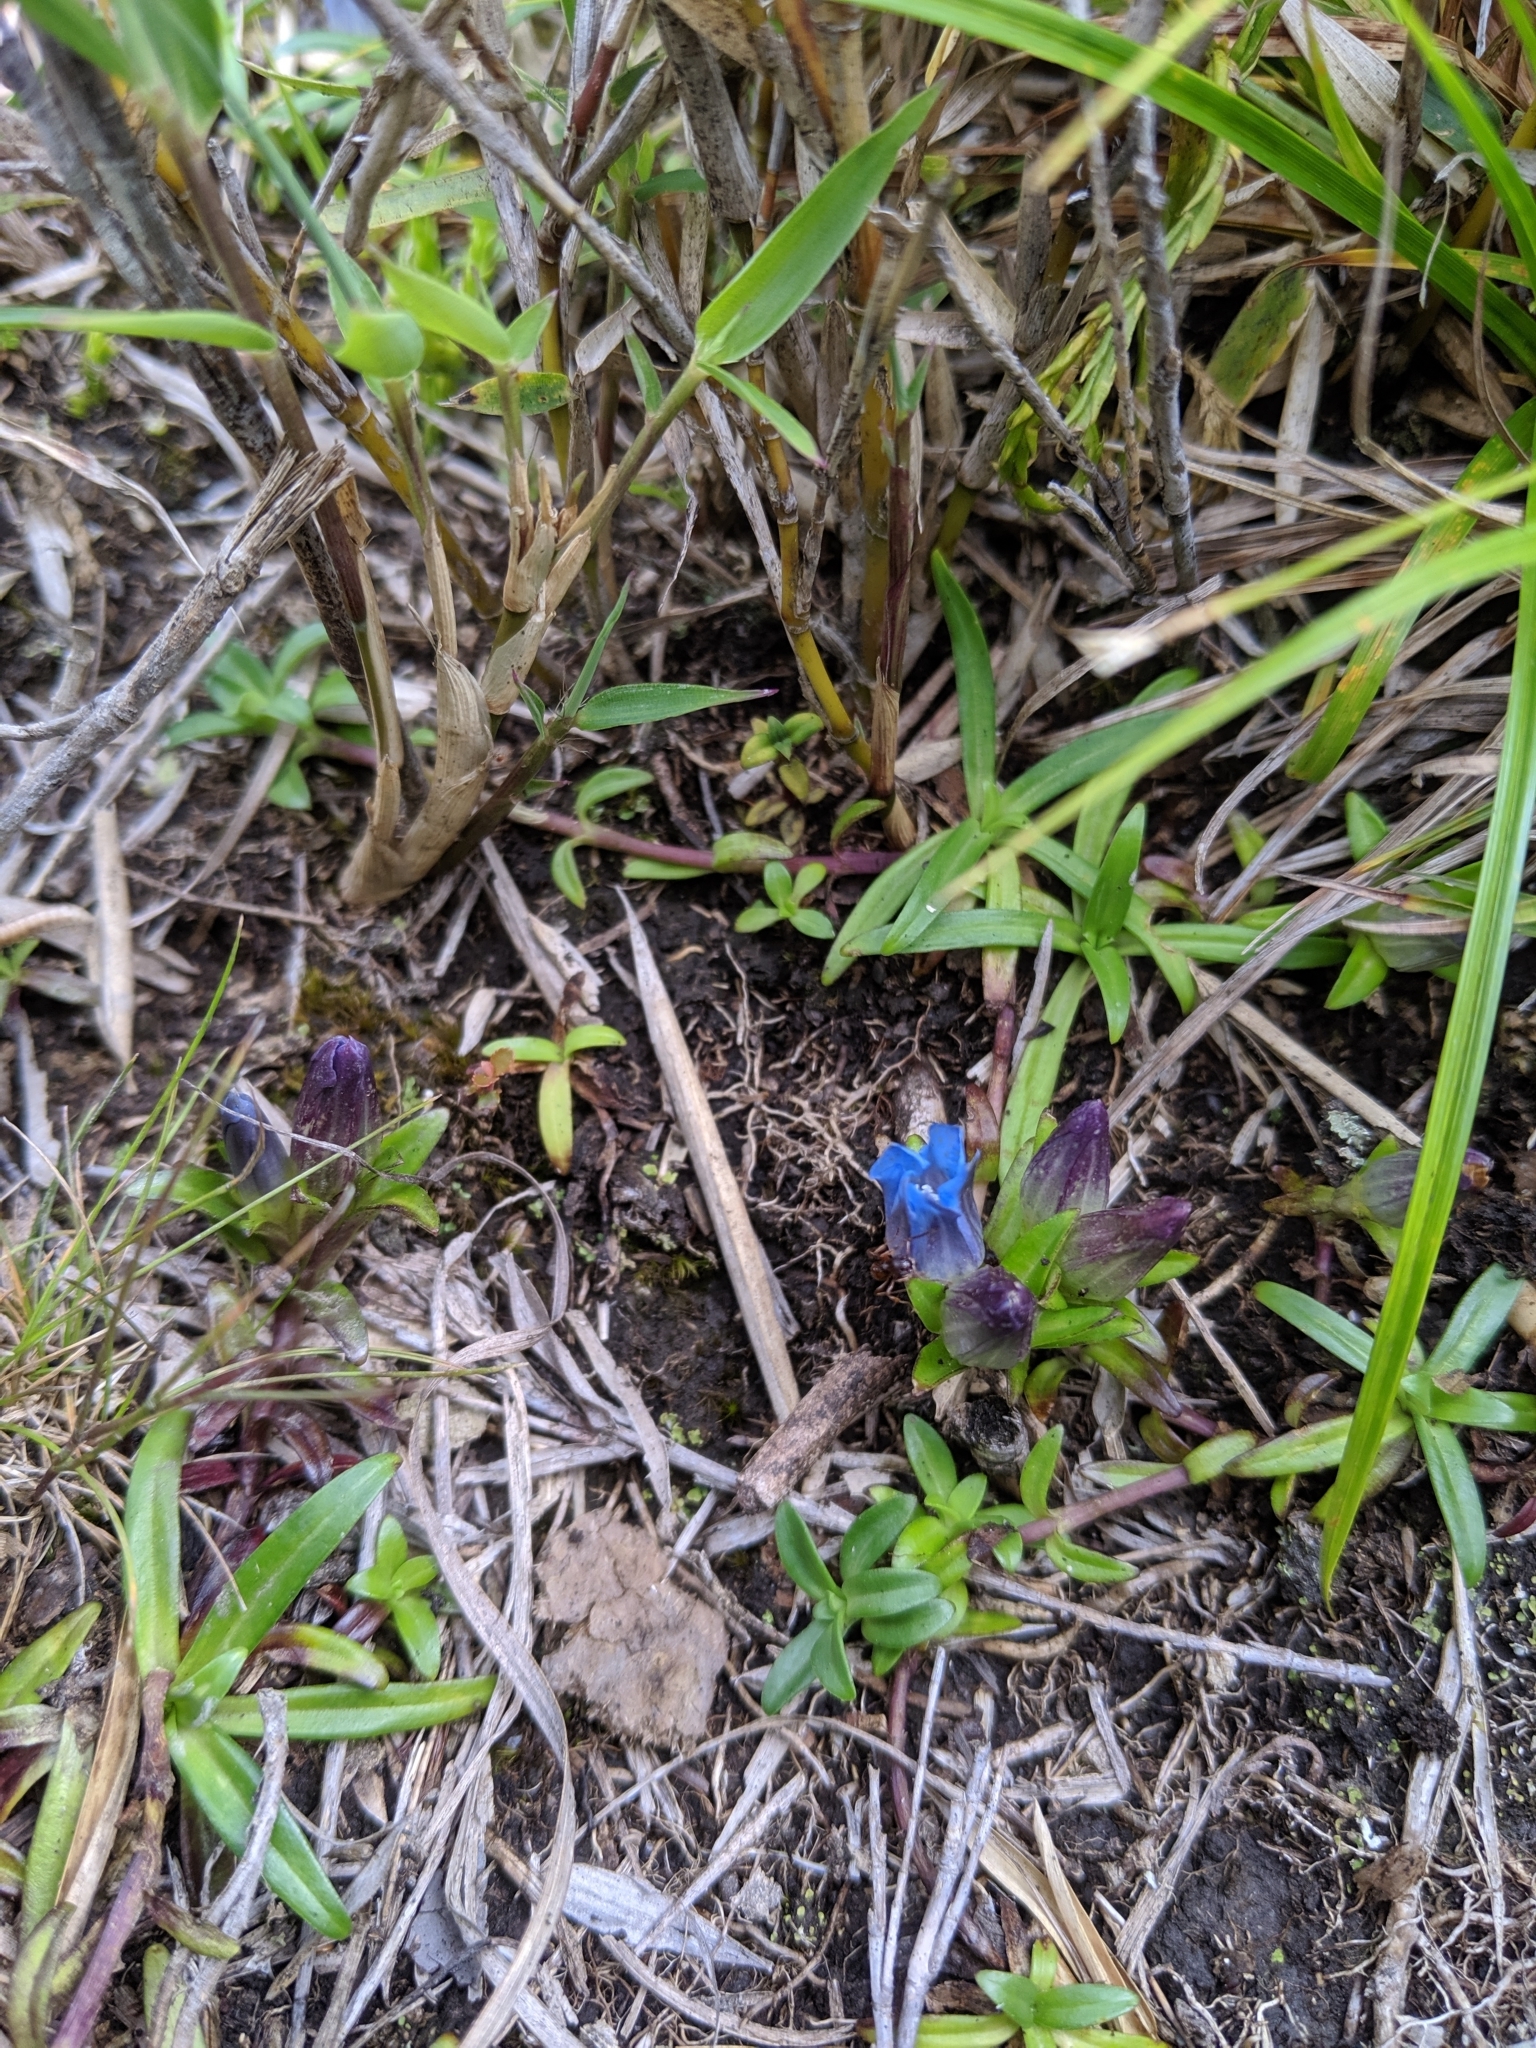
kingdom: Plantae
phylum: Tracheophyta
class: Magnoliopsida
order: Gentianales
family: Gentianaceae
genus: Gentiana
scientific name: Gentiana davidii
